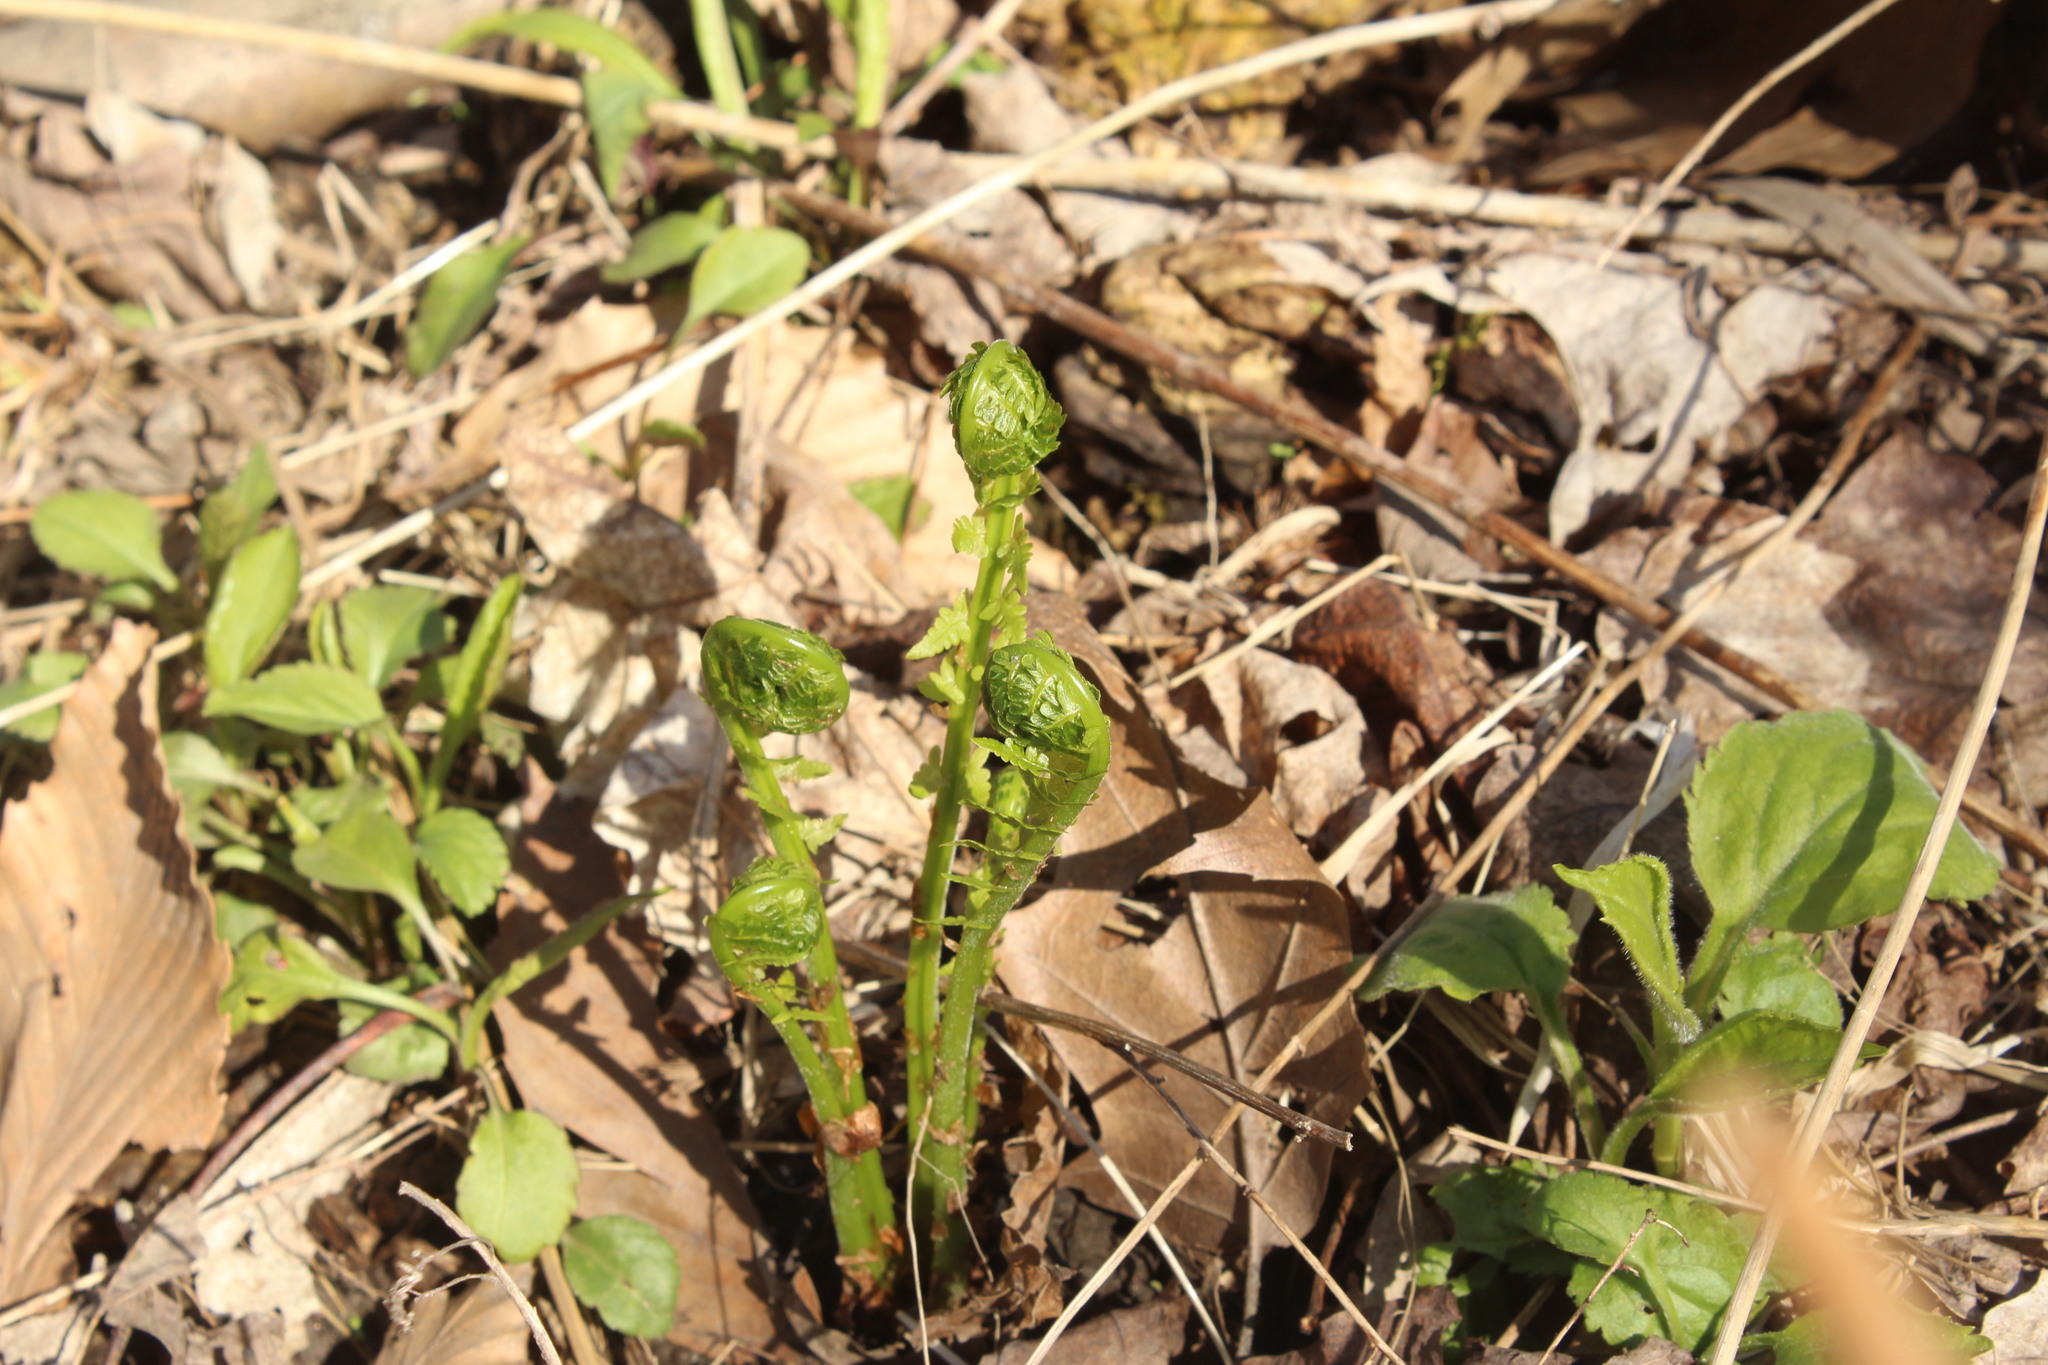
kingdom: Plantae
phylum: Tracheophyta
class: Polypodiopsida
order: Polypodiales
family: Onocleaceae
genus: Matteuccia
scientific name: Matteuccia struthiopteris
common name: Ostrich fern
